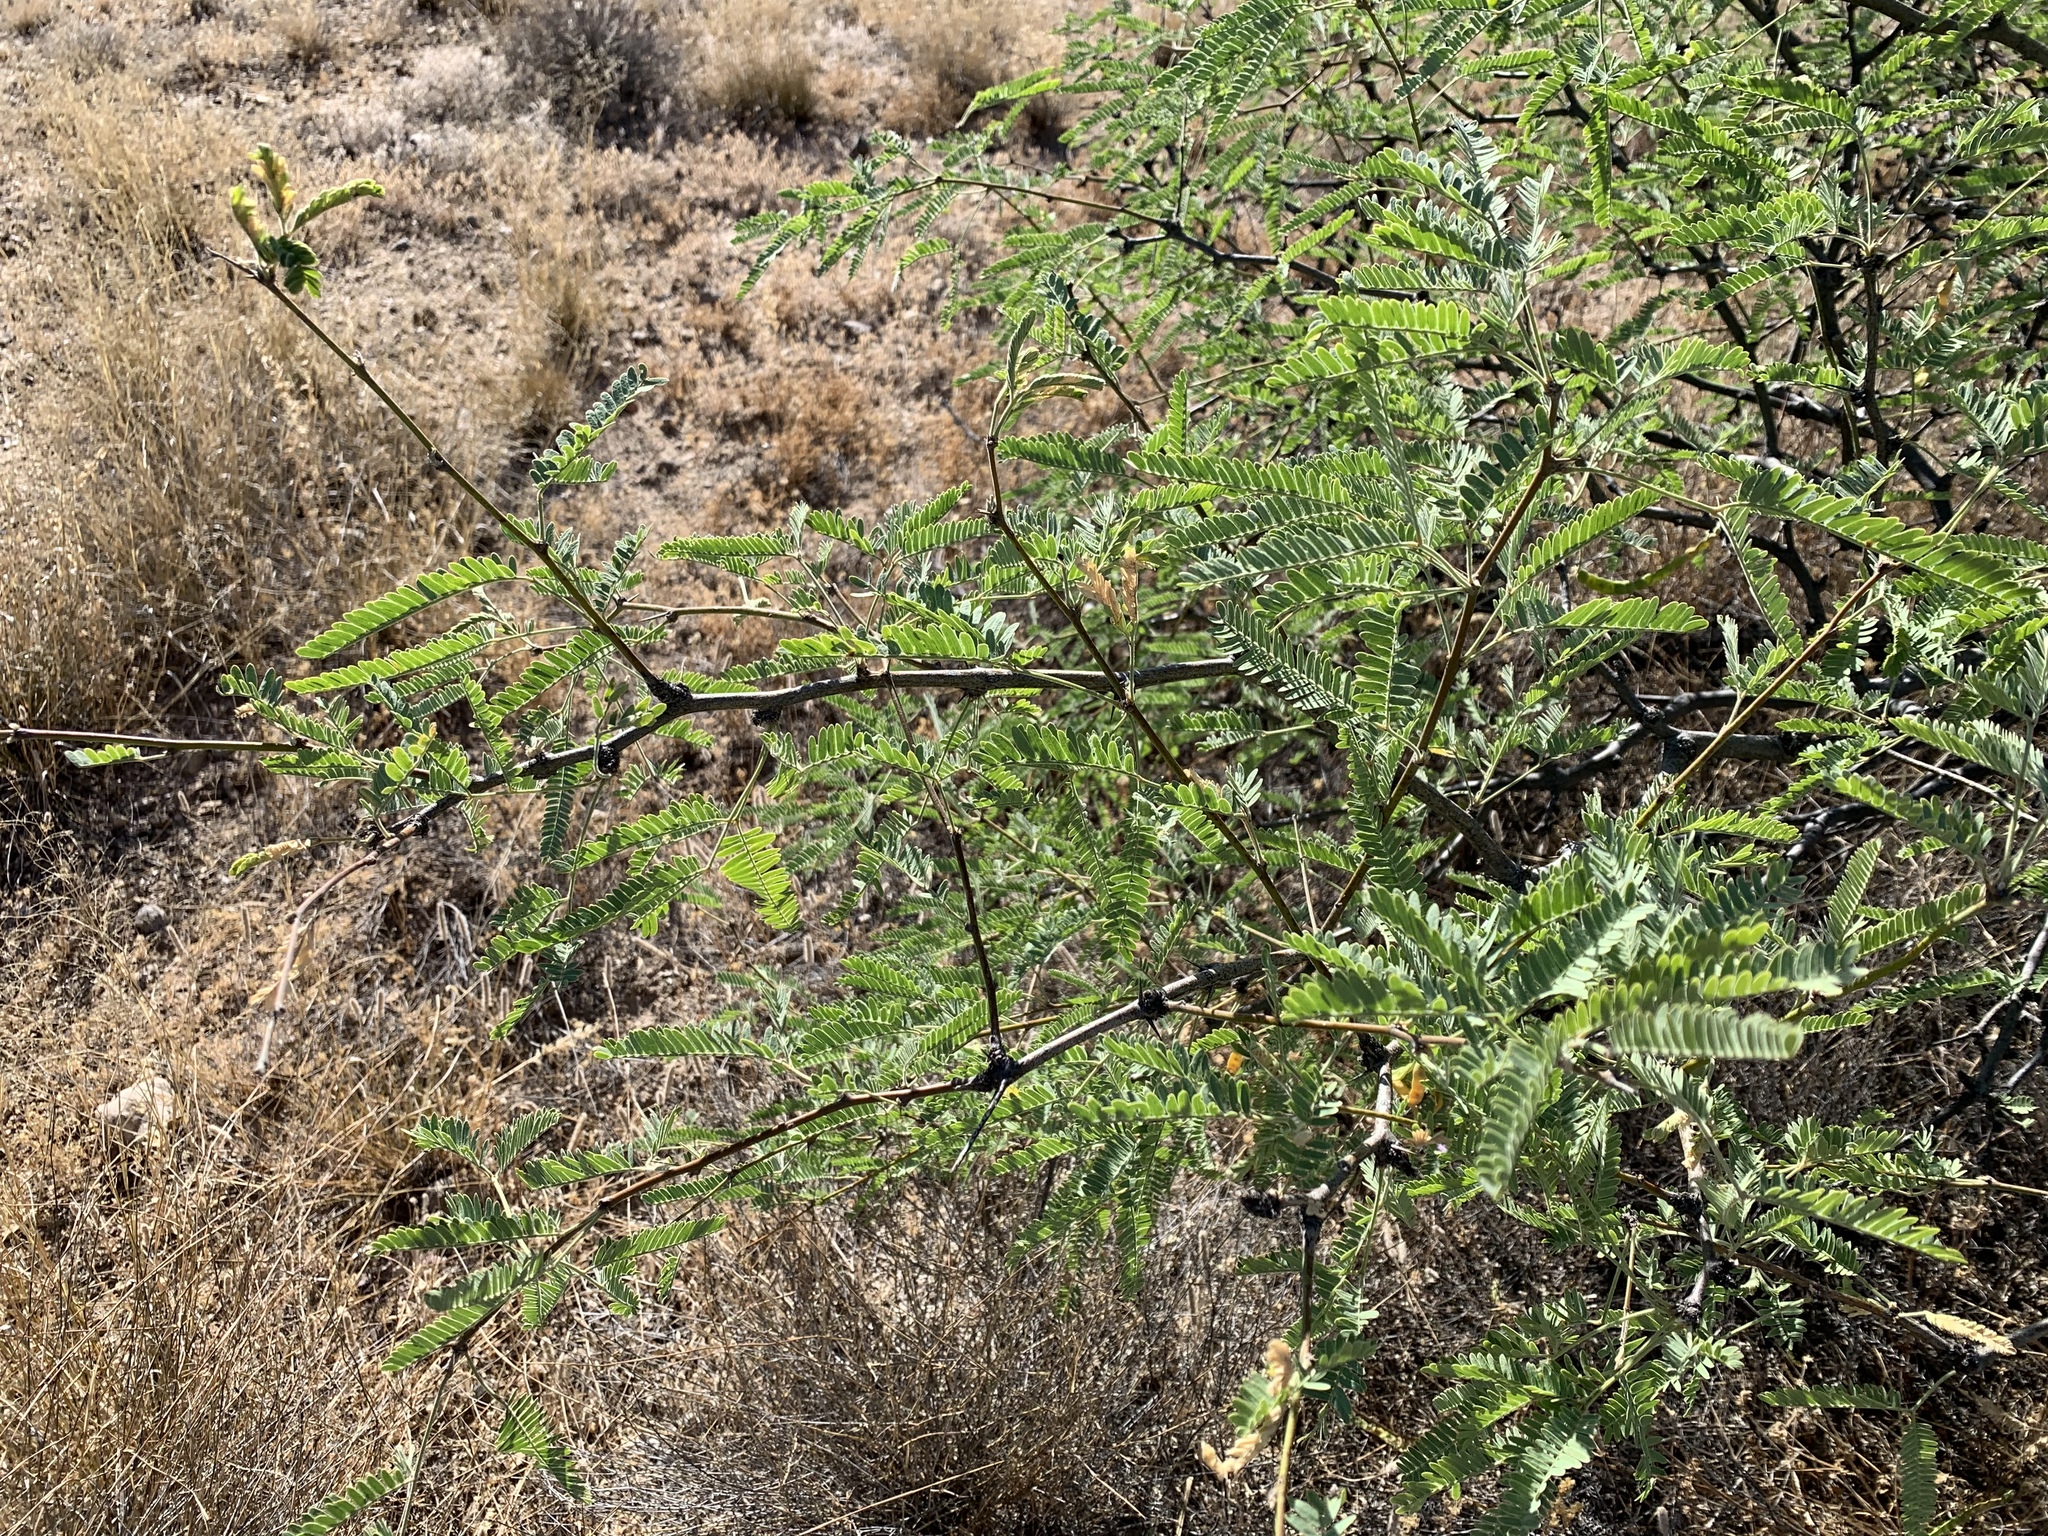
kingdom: Plantae
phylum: Tracheophyta
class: Magnoliopsida
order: Fabales
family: Fabaceae
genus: Prosopis
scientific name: Prosopis velutina
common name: Velvet mesquite
